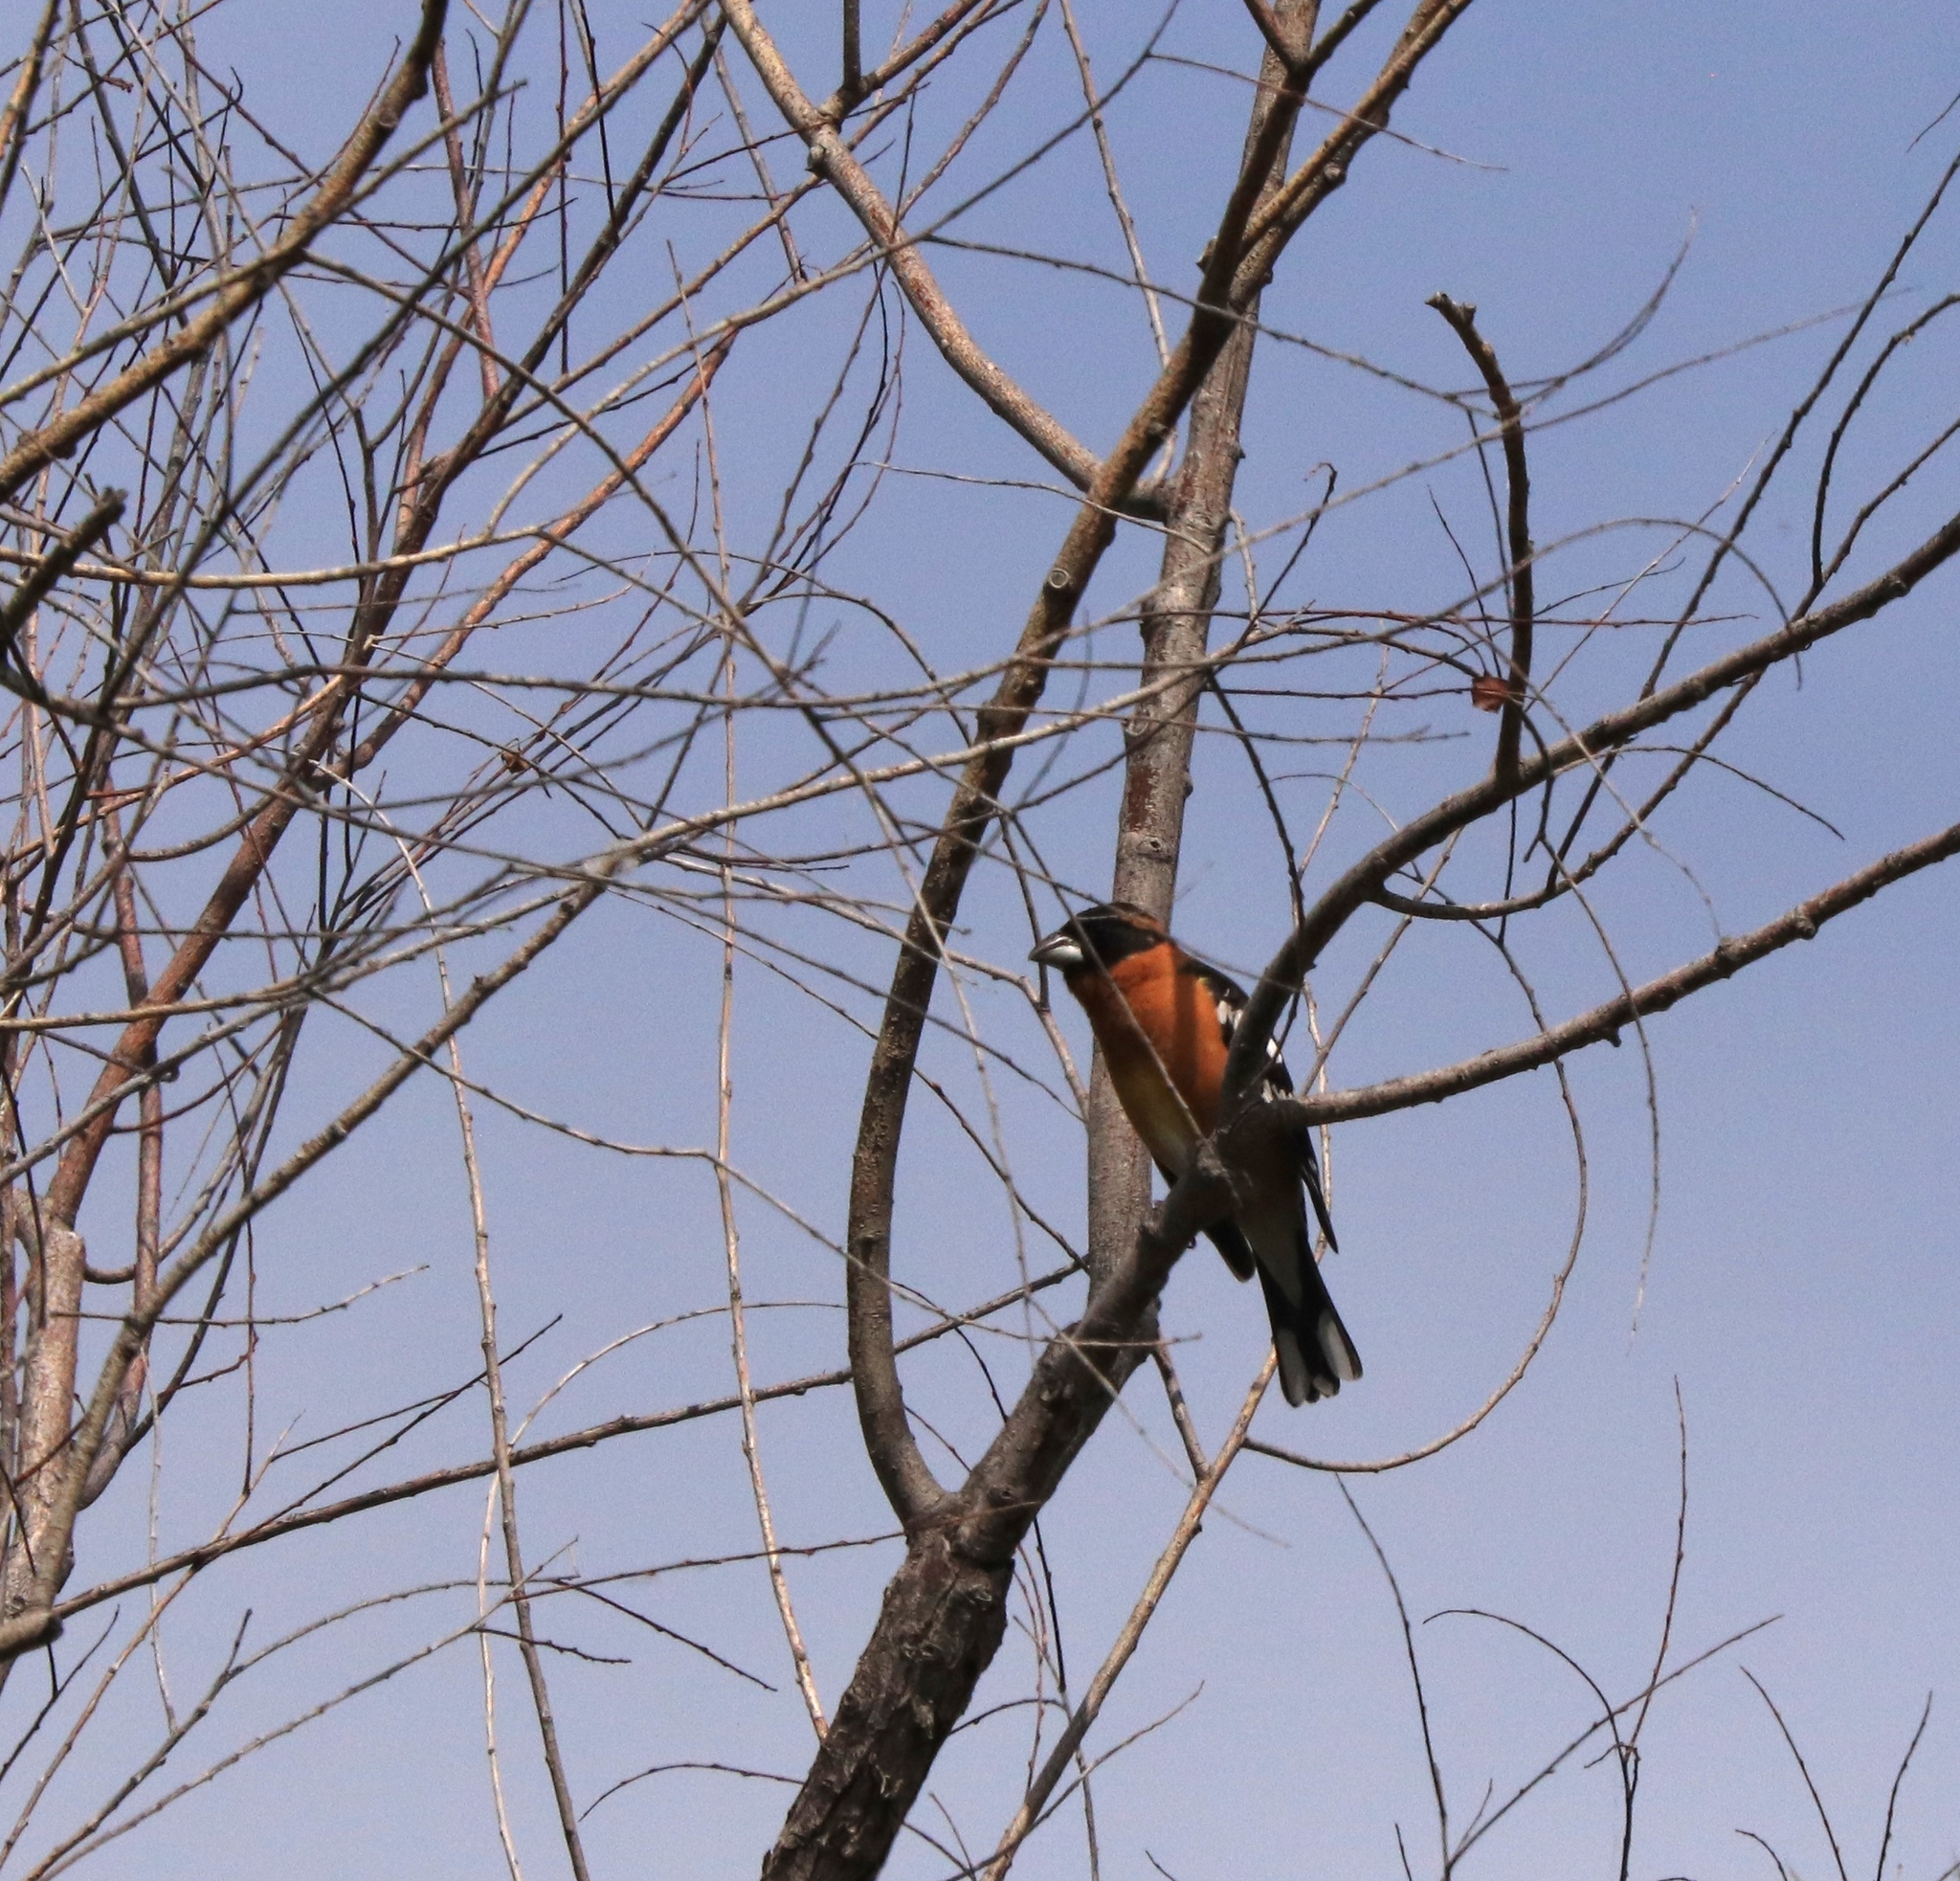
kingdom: Animalia
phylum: Chordata
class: Aves
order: Passeriformes
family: Cardinalidae
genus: Pheucticus
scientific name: Pheucticus melanocephalus
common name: Black-headed grosbeak
